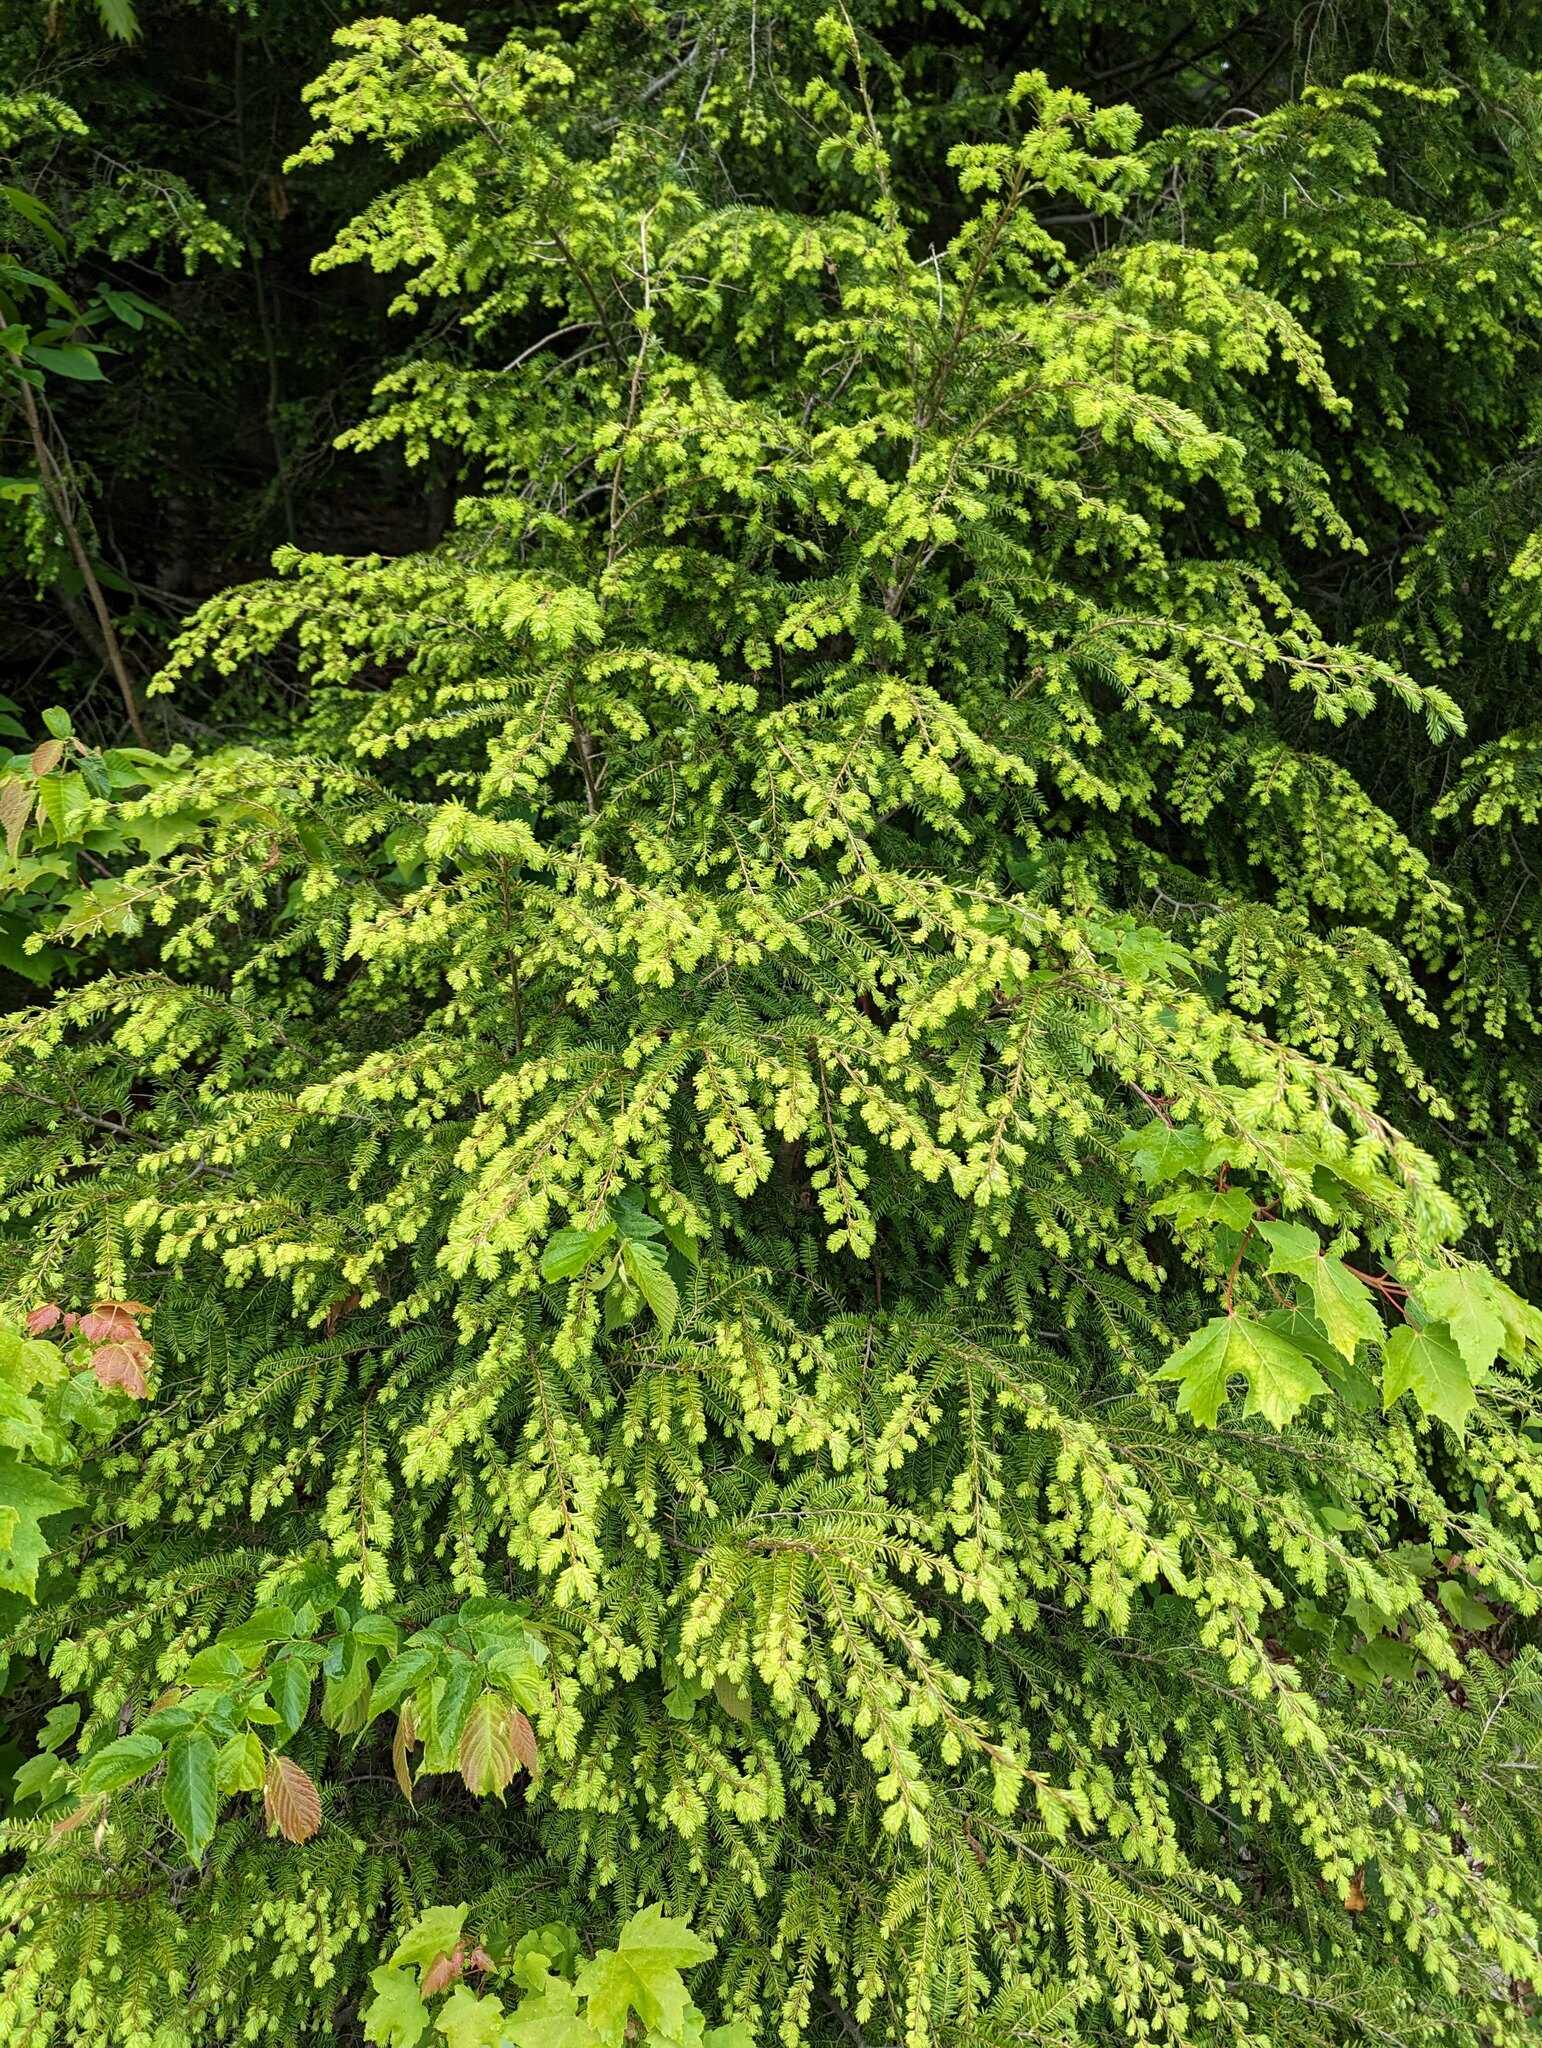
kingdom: Plantae
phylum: Tracheophyta
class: Pinopsida
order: Pinales
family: Pinaceae
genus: Tsuga
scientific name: Tsuga canadensis
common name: Eastern hemlock
